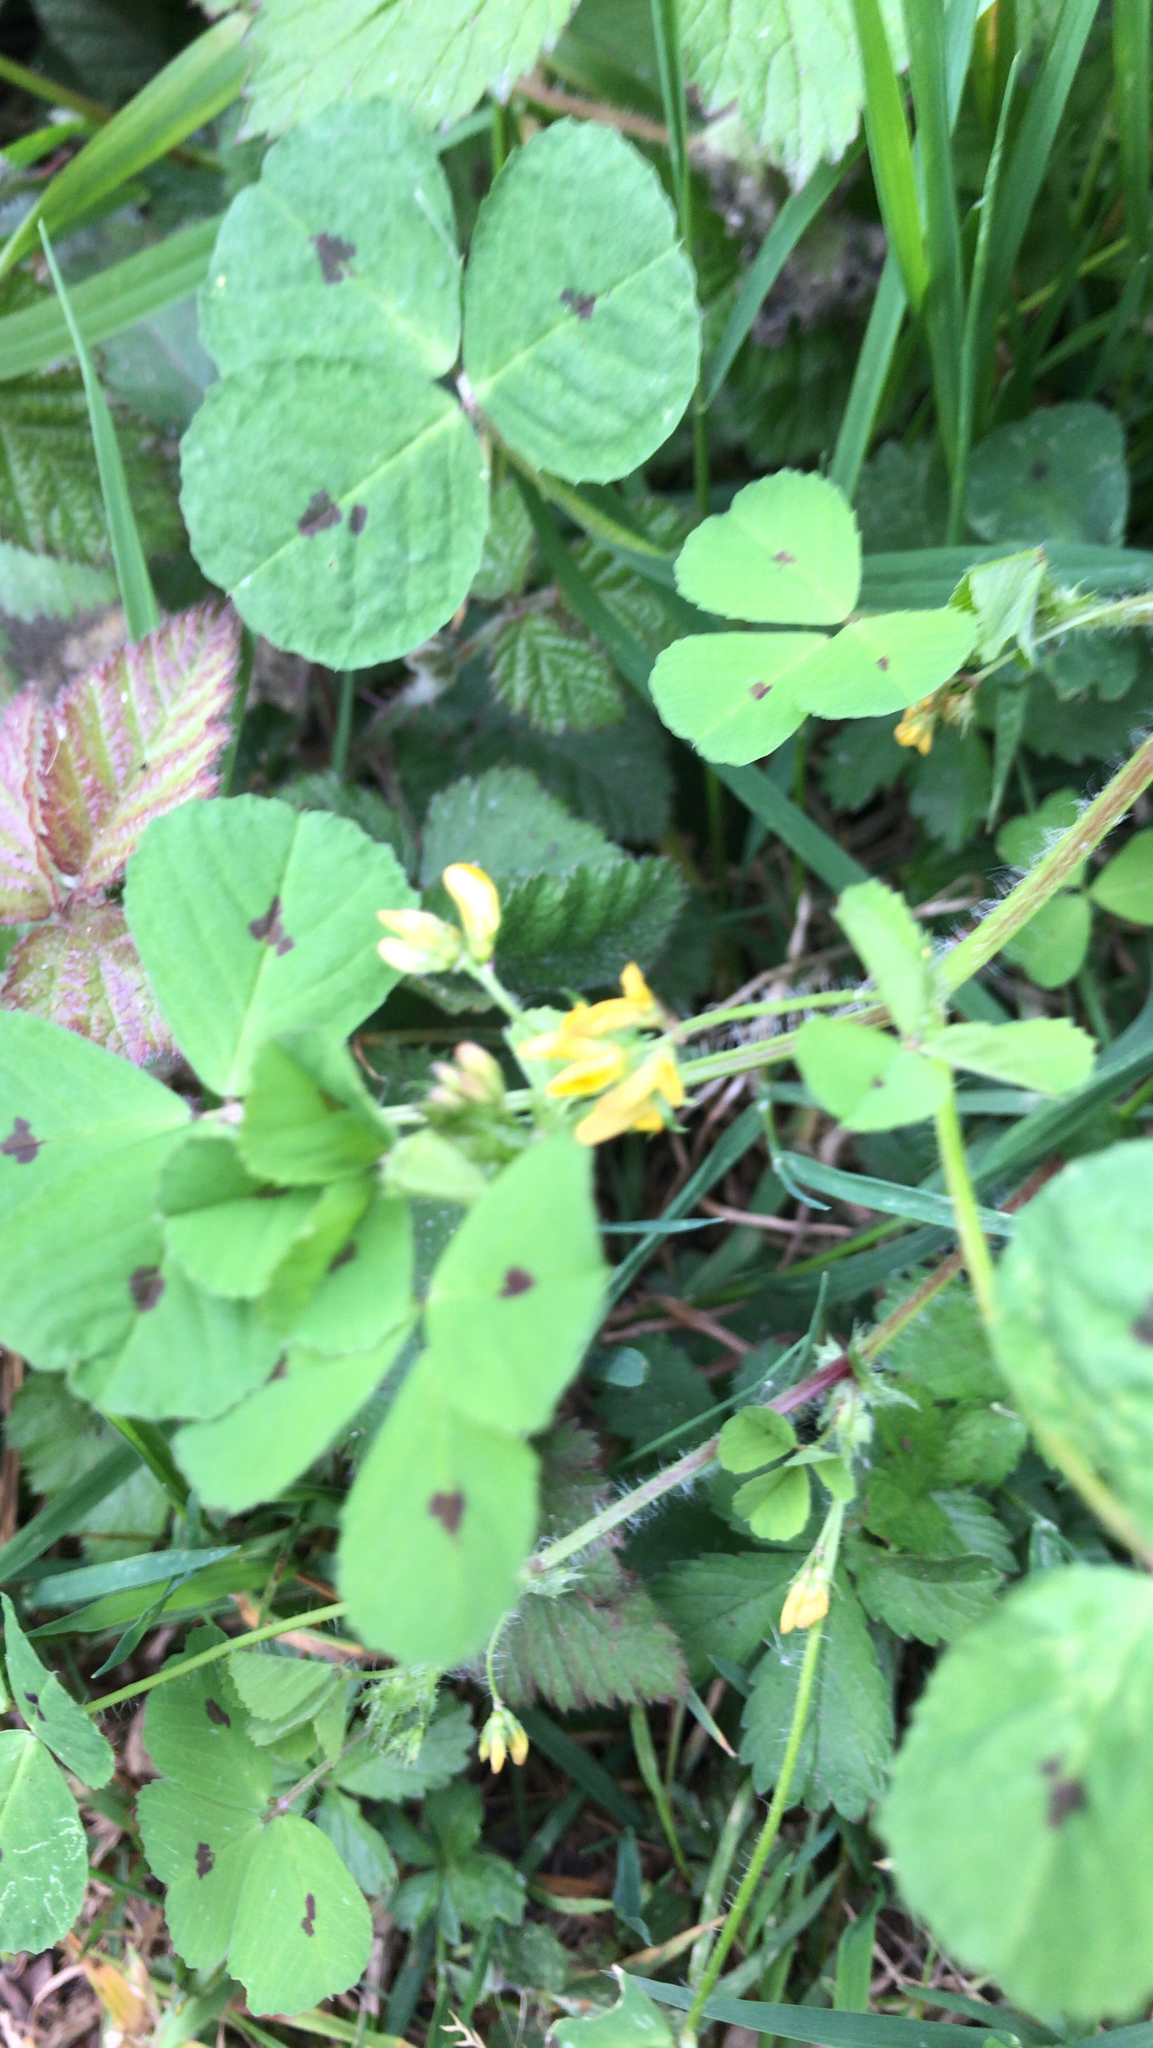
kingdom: Plantae
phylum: Tracheophyta
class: Magnoliopsida
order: Fabales
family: Fabaceae
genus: Medicago
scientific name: Medicago arabica
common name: Spotted medick
